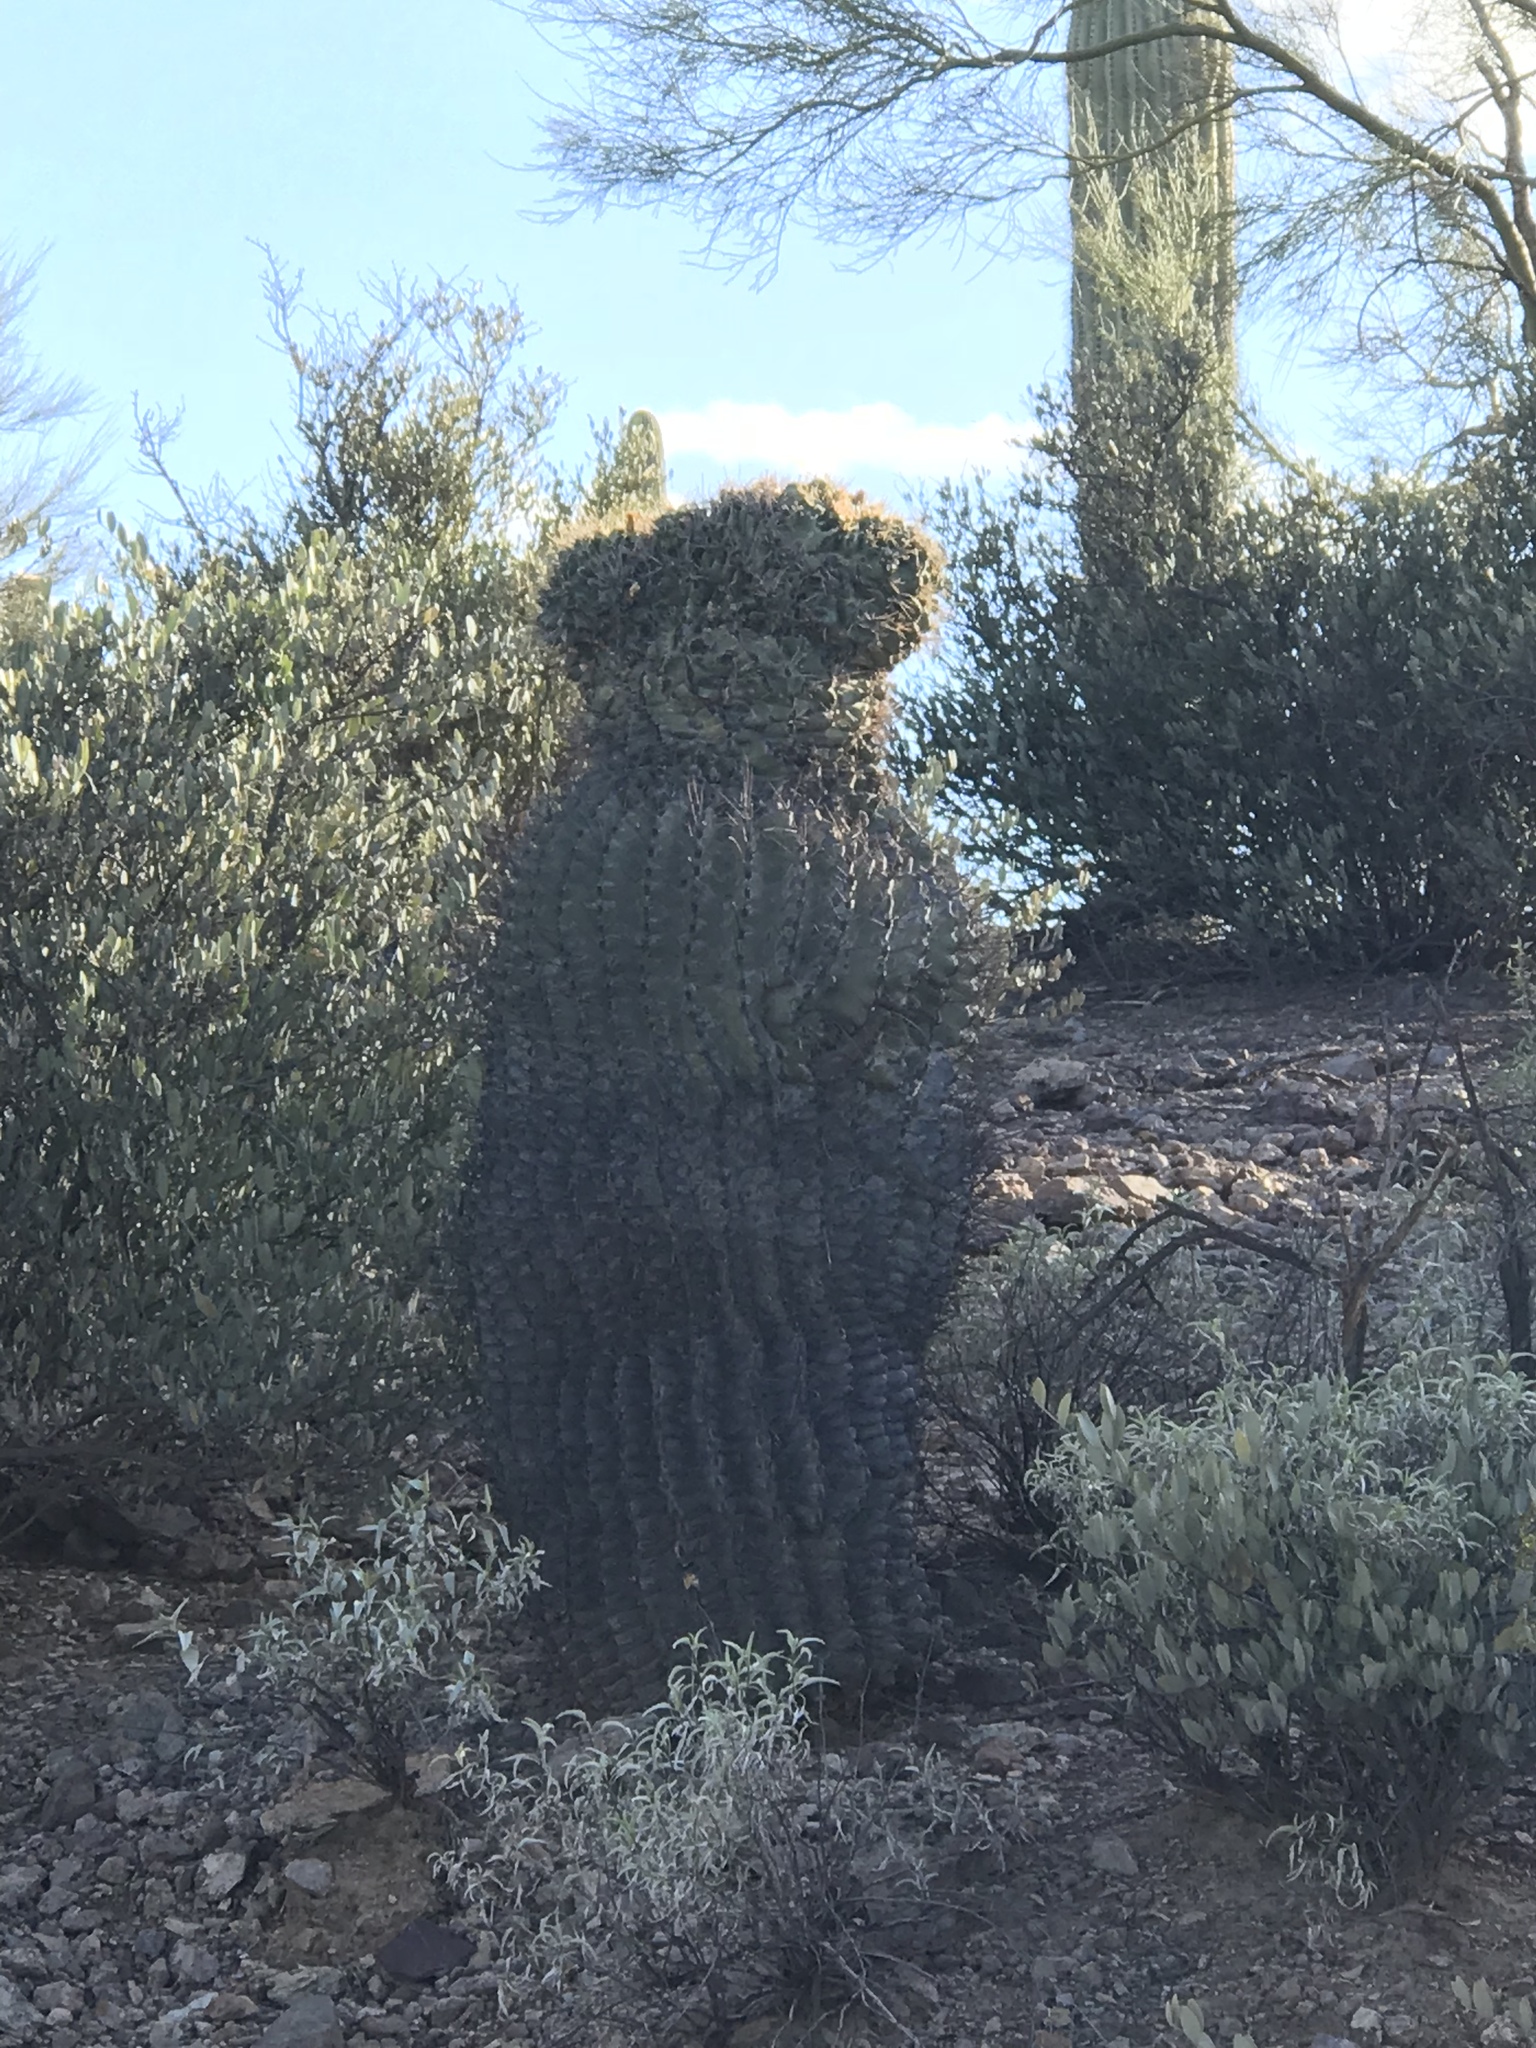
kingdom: Plantae
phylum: Tracheophyta
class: Magnoliopsida
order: Caryophyllales
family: Cactaceae
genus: Ferocactus
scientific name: Ferocactus wislizeni
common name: Candy barrel cactus
